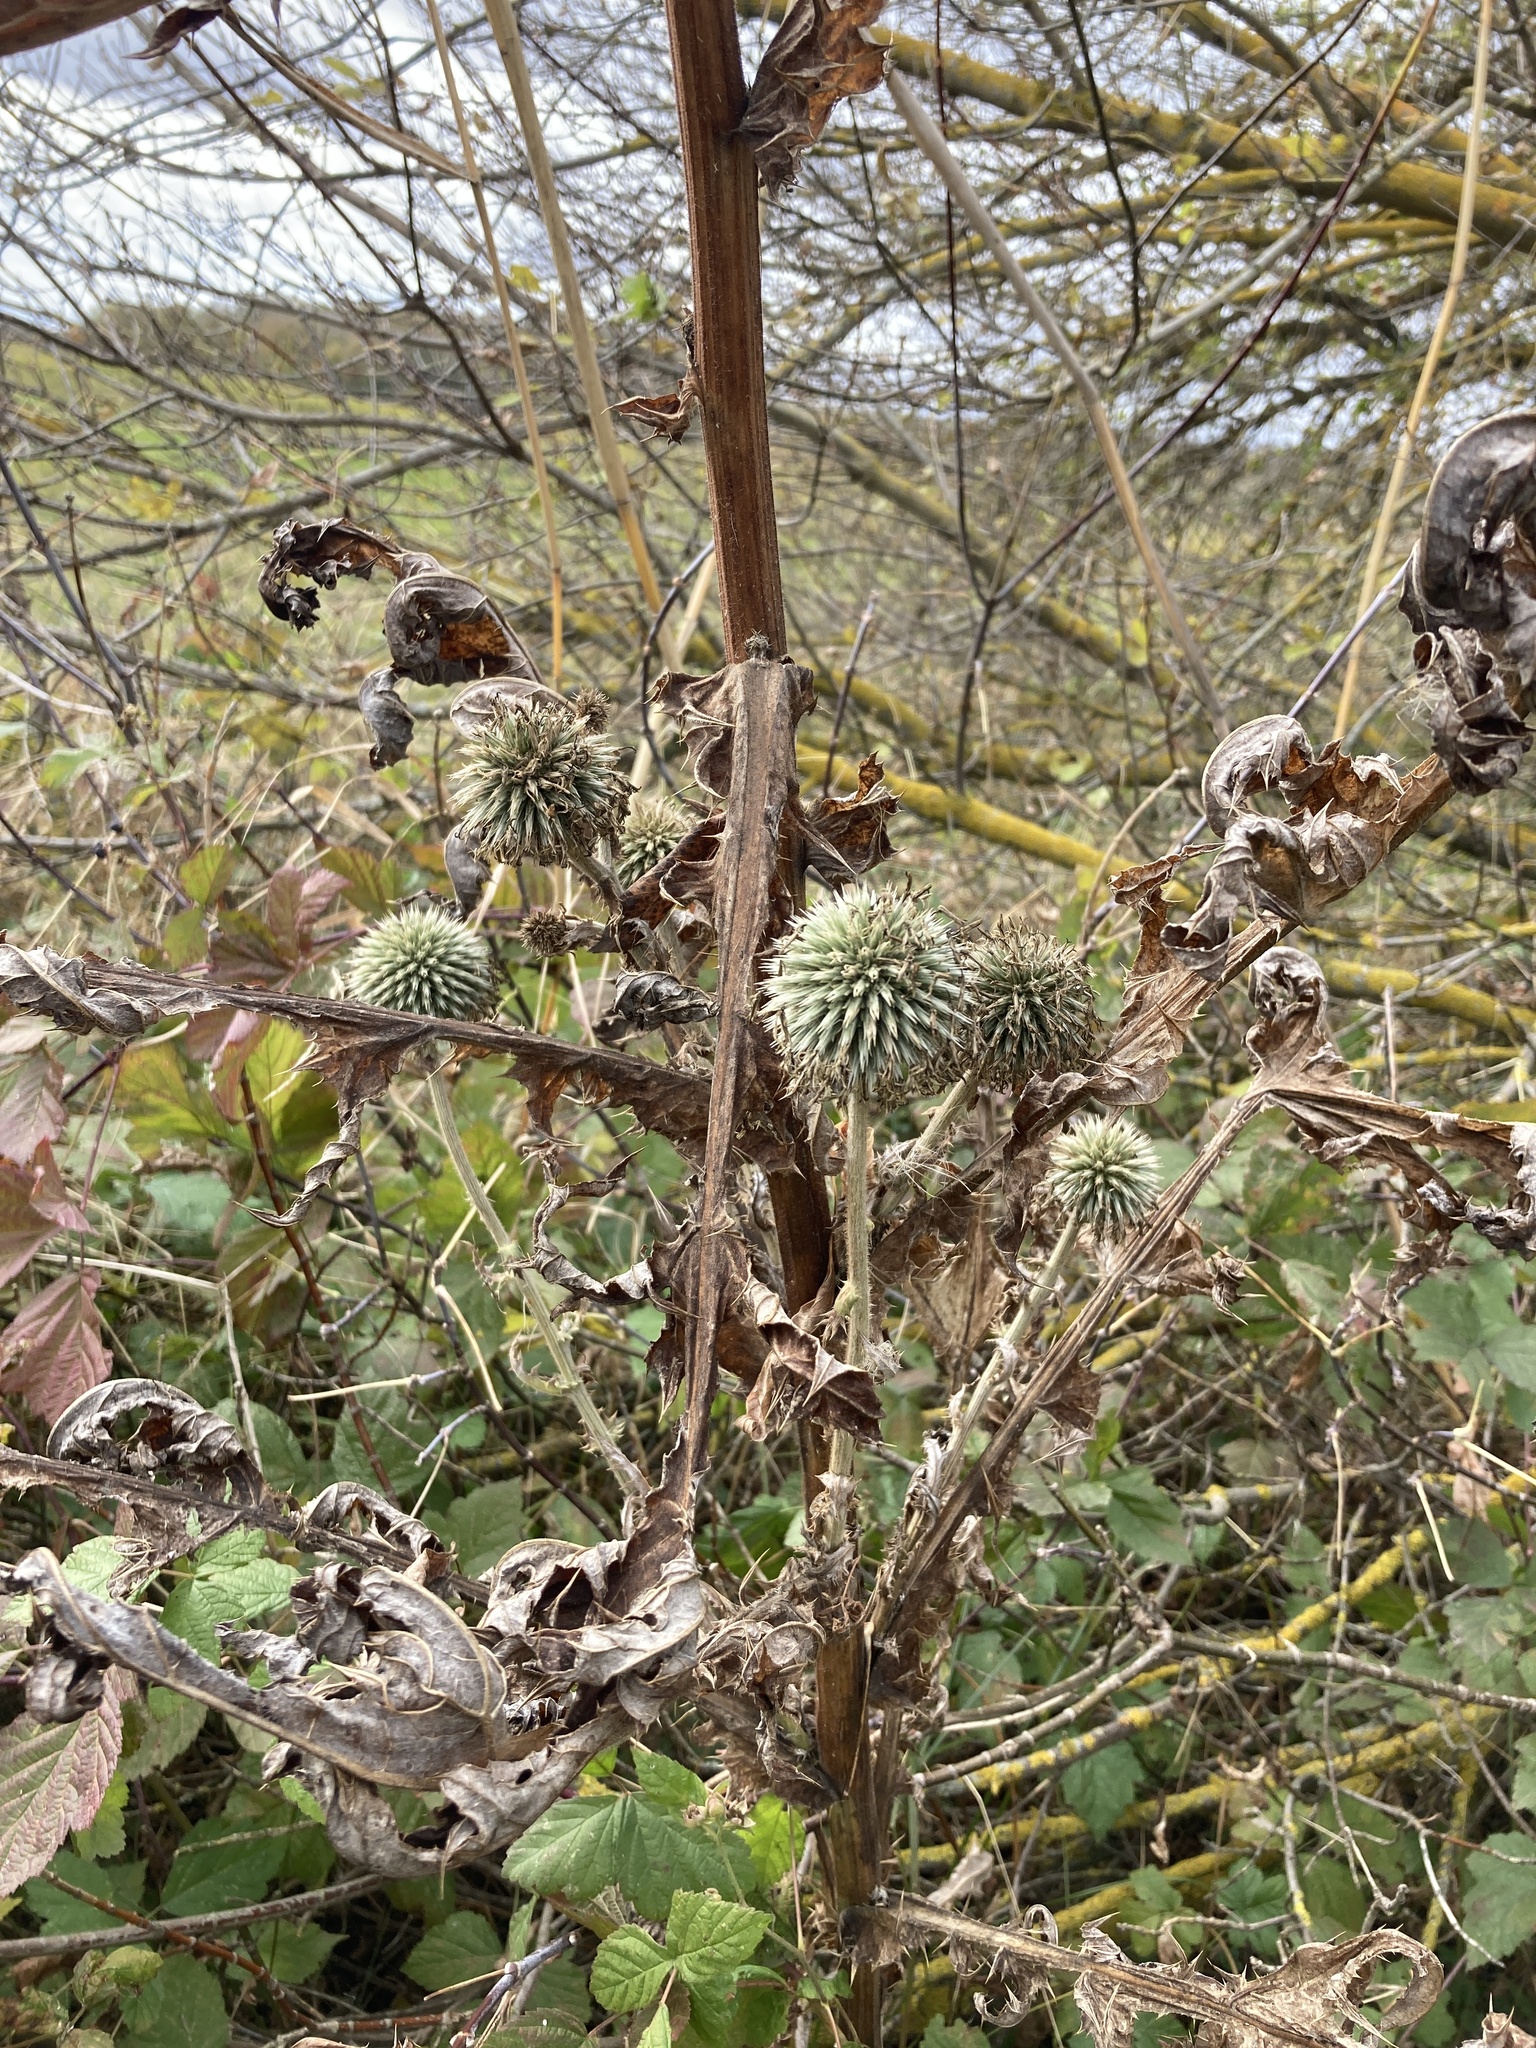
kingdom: Plantae
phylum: Tracheophyta
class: Magnoliopsida
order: Asterales
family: Asteraceae
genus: Echinops
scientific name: Echinops sphaerocephalus
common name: Glandular globe-thistle
